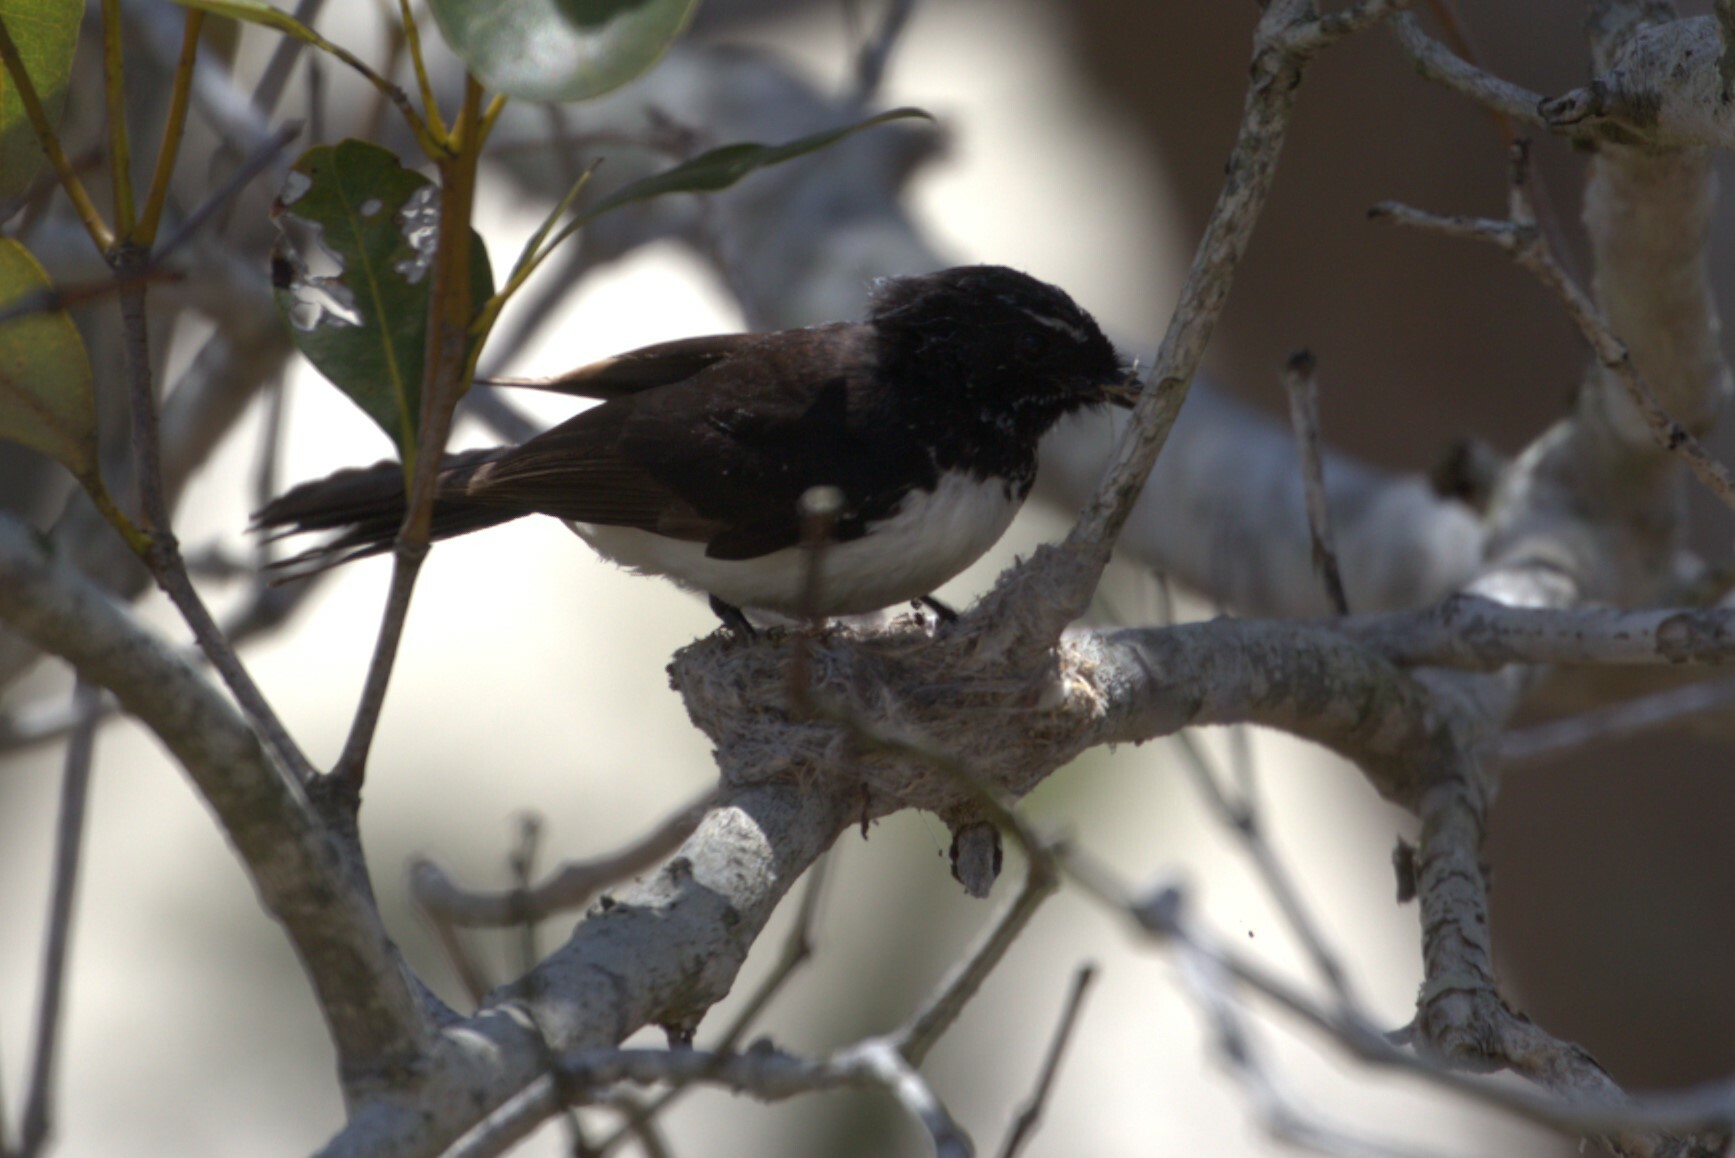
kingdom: Animalia
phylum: Chordata
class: Aves
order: Passeriformes
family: Rhipiduridae
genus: Rhipidura
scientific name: Rhipidura leucophrys
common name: Willie wagtail
